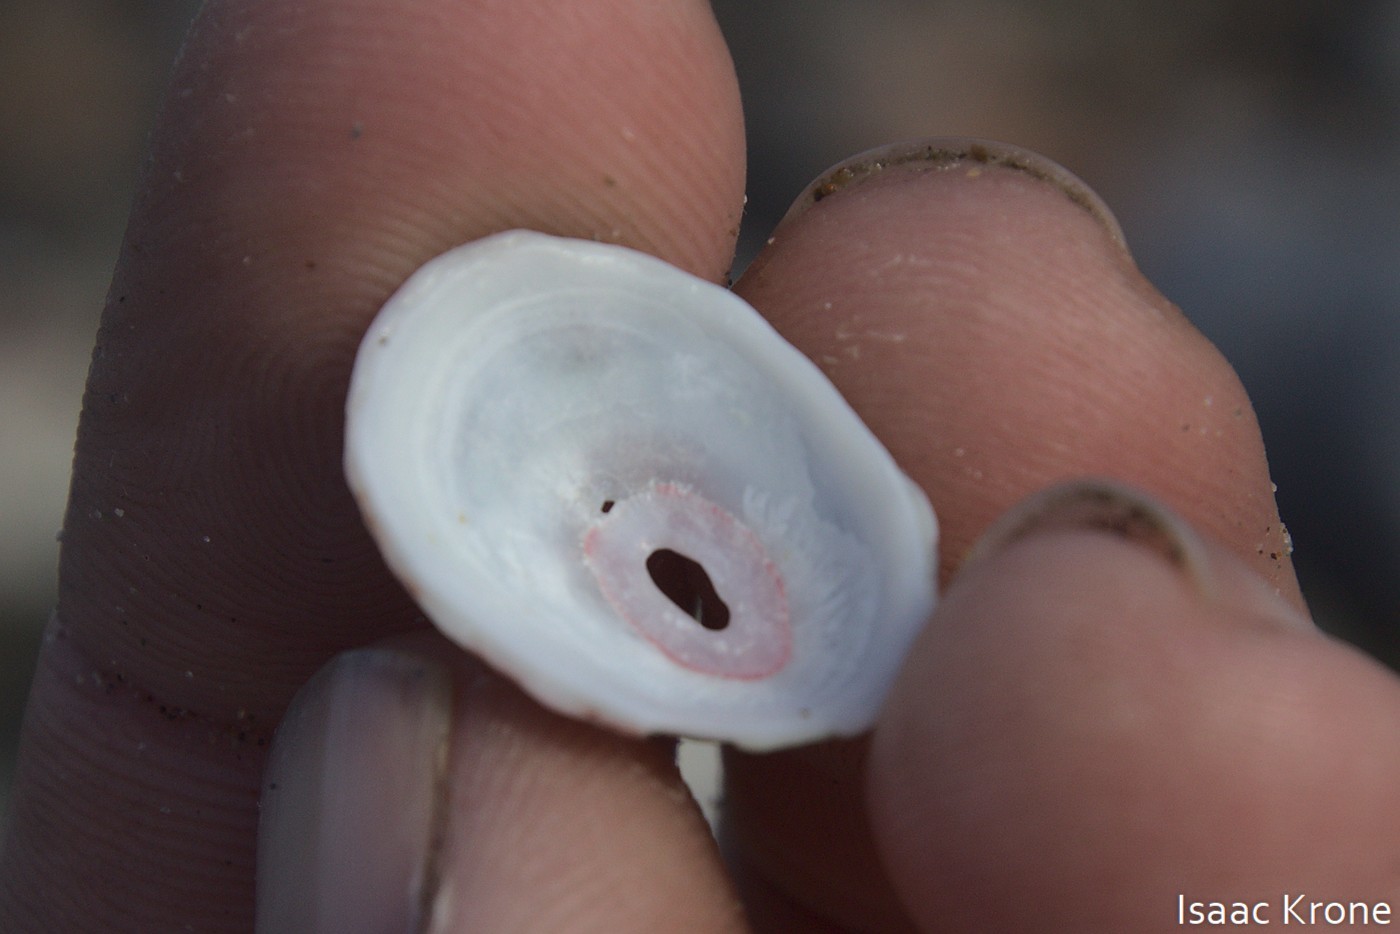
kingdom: Animalia
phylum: Mollusca
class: Gastropoda
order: Lepetellida
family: Fissurellidae
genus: Fissurella
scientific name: Fissurella volcano
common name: Volcano keyhole limpet
